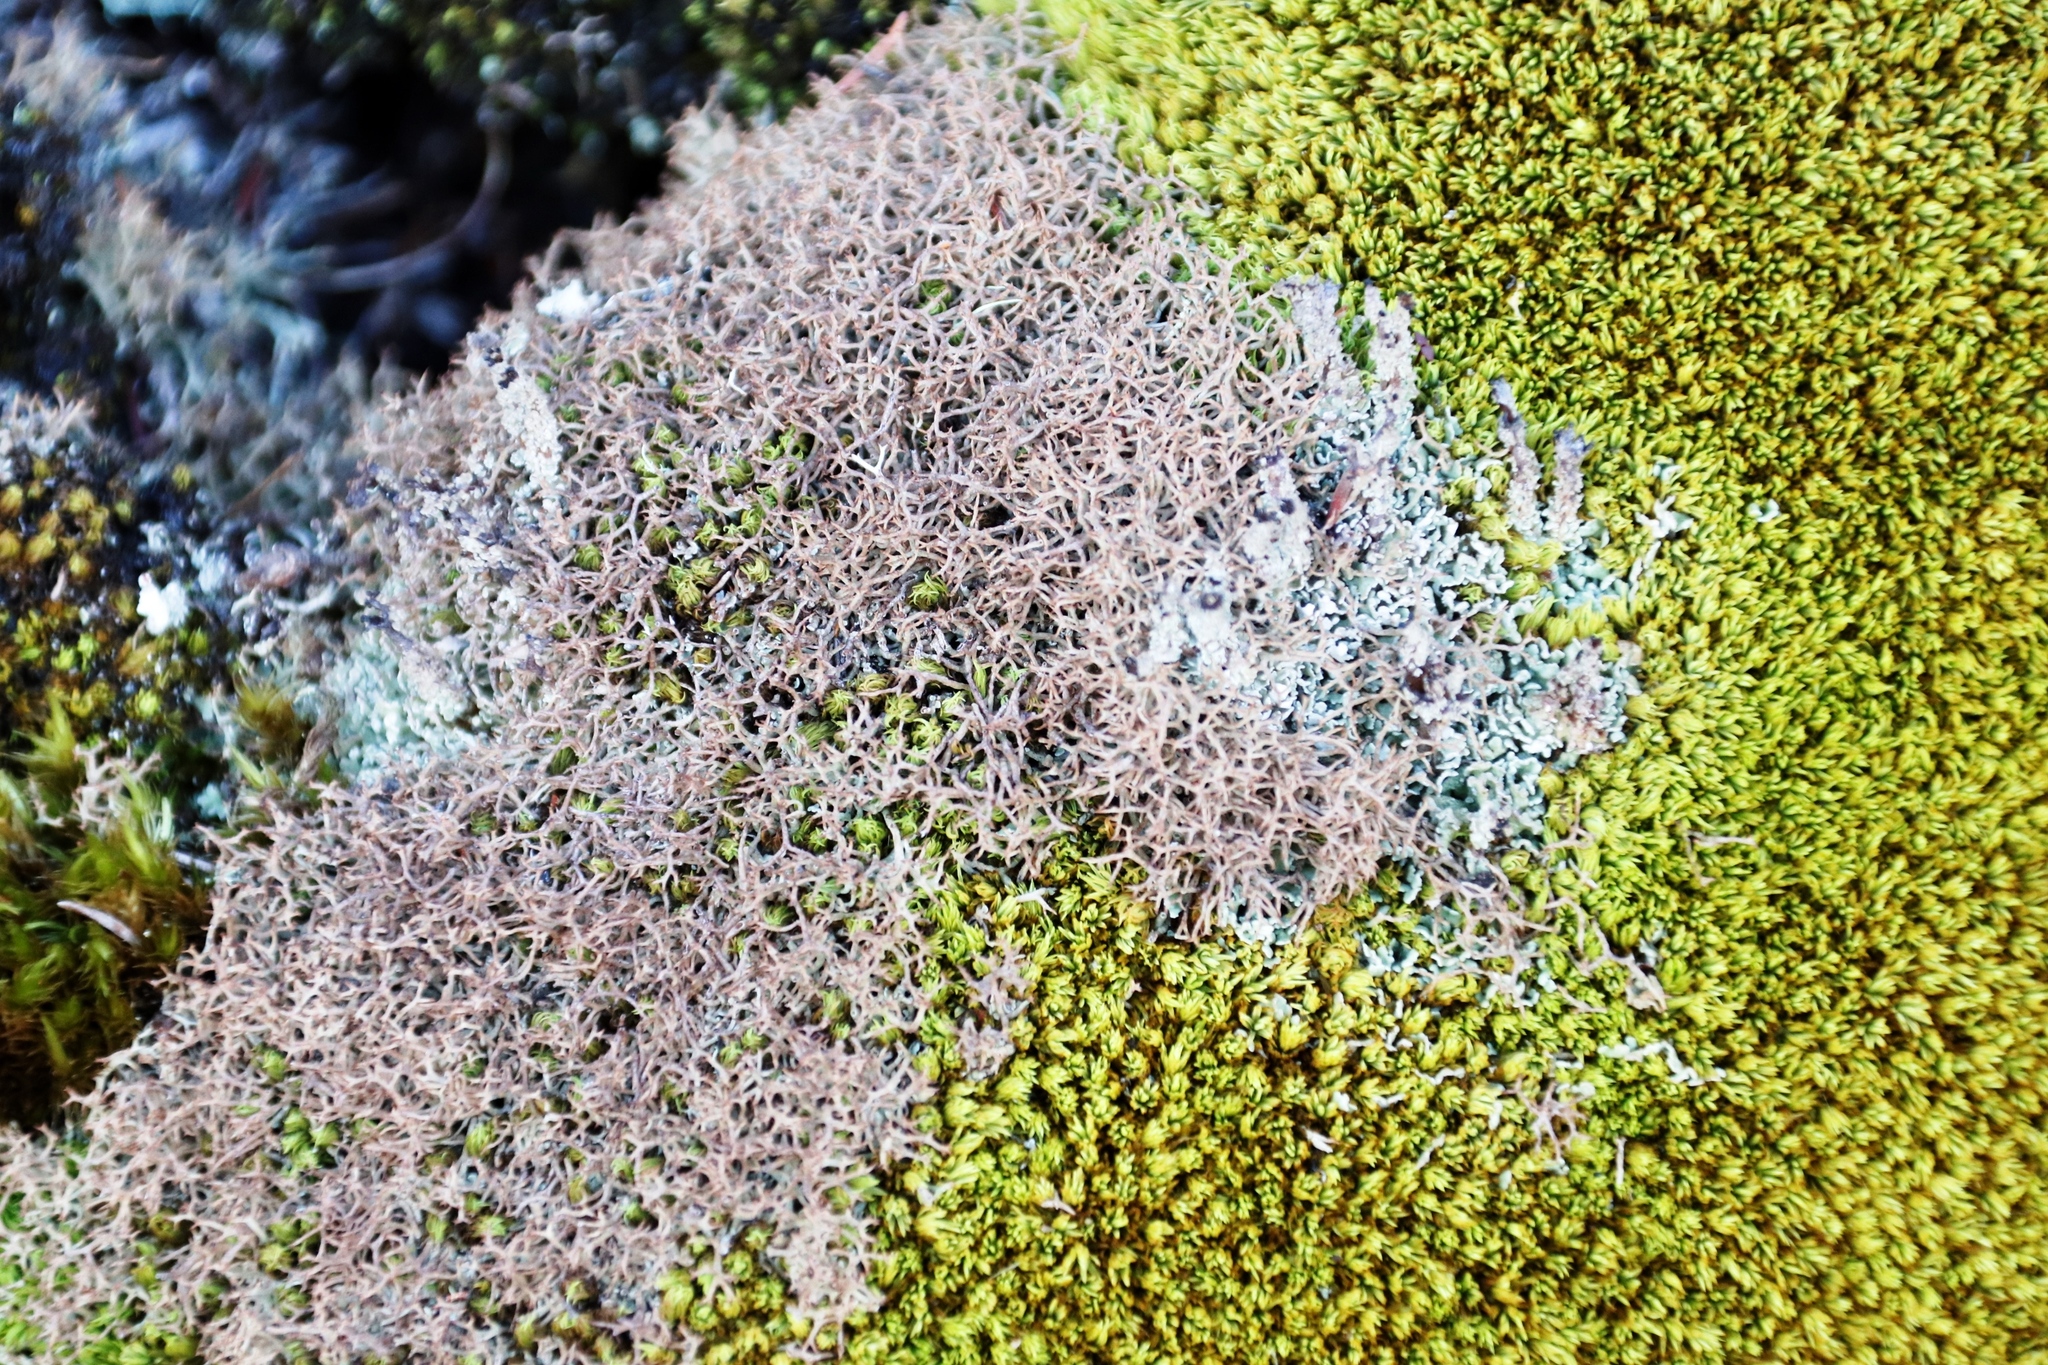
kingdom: Fungi
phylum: Ascomycota
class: Lecanoromycetes
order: Lecanorales
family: Cladoniaceae
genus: Cladonia
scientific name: Cladonia
